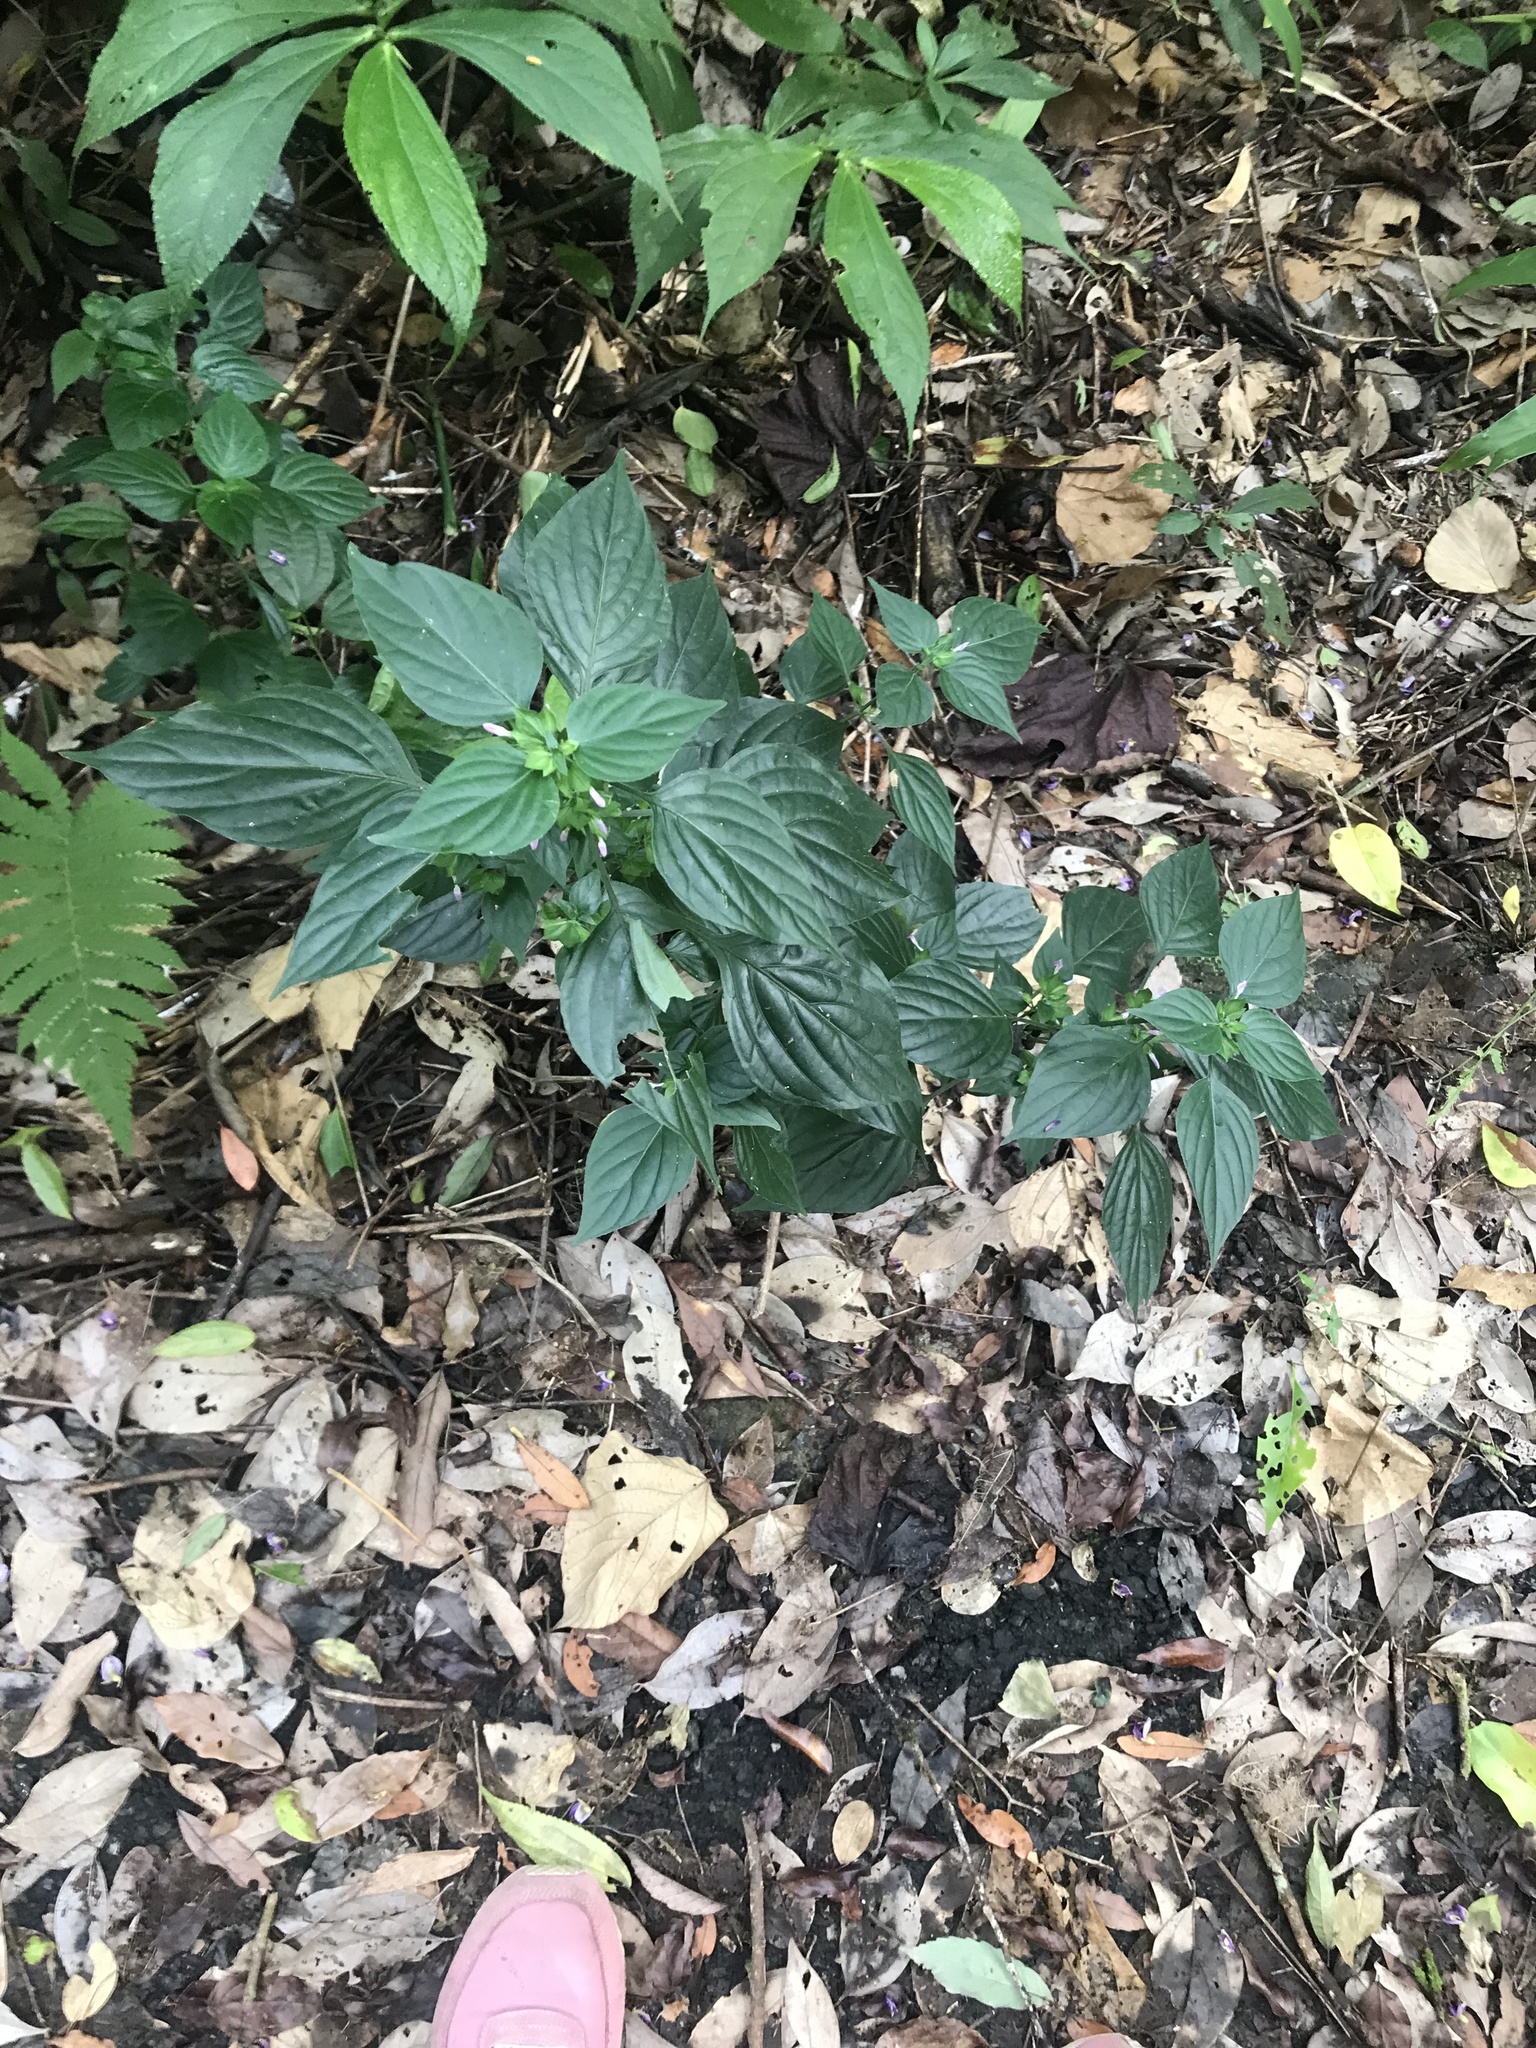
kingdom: Plantae
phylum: Tracheophyta
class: Magnoliopsida
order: Lamiales
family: Acanthaceae
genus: Dicliptera
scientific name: Dicliptera chinensis
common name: Chinese foldwing
